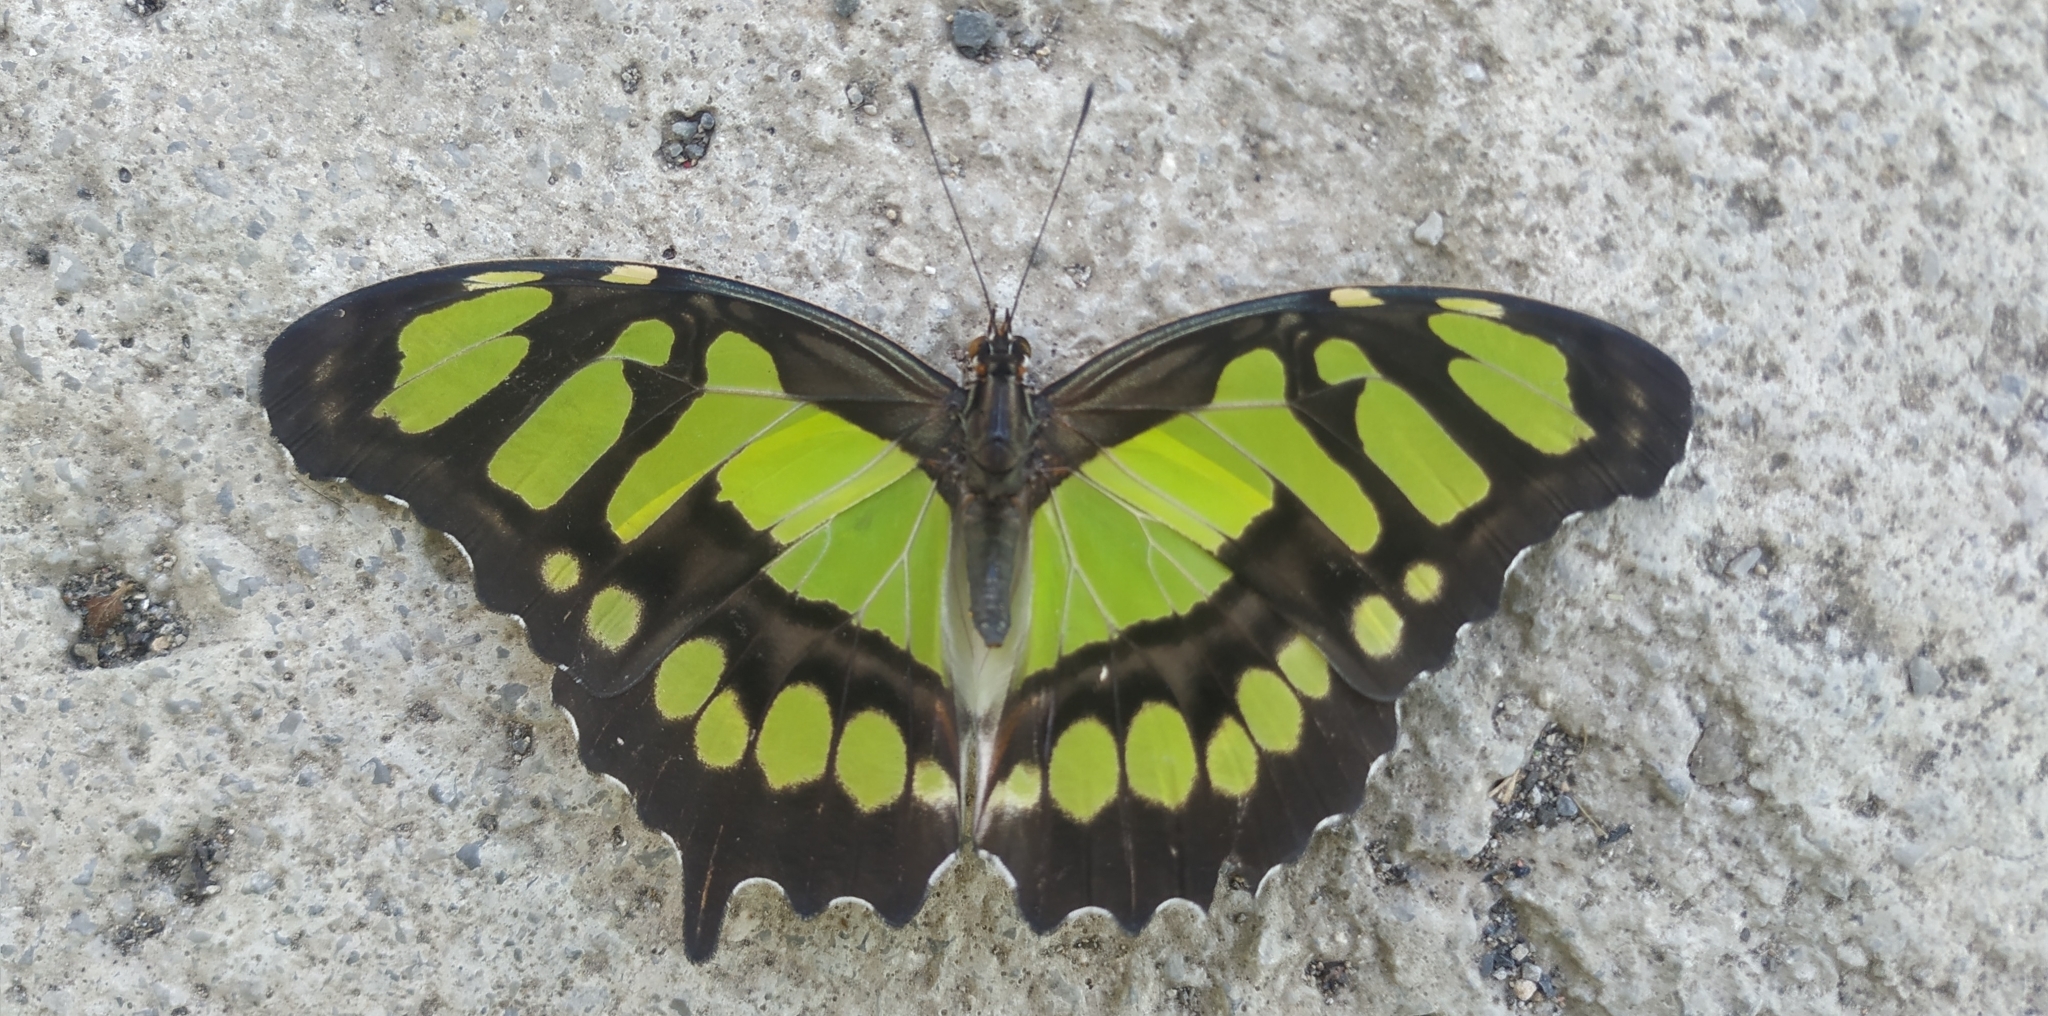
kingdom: Animalia
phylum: Arthropoda
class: Insecta
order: Lepidoptera
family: Nymphalidae
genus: Siproeta
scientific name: Siproeta stelenes
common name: Malachite
